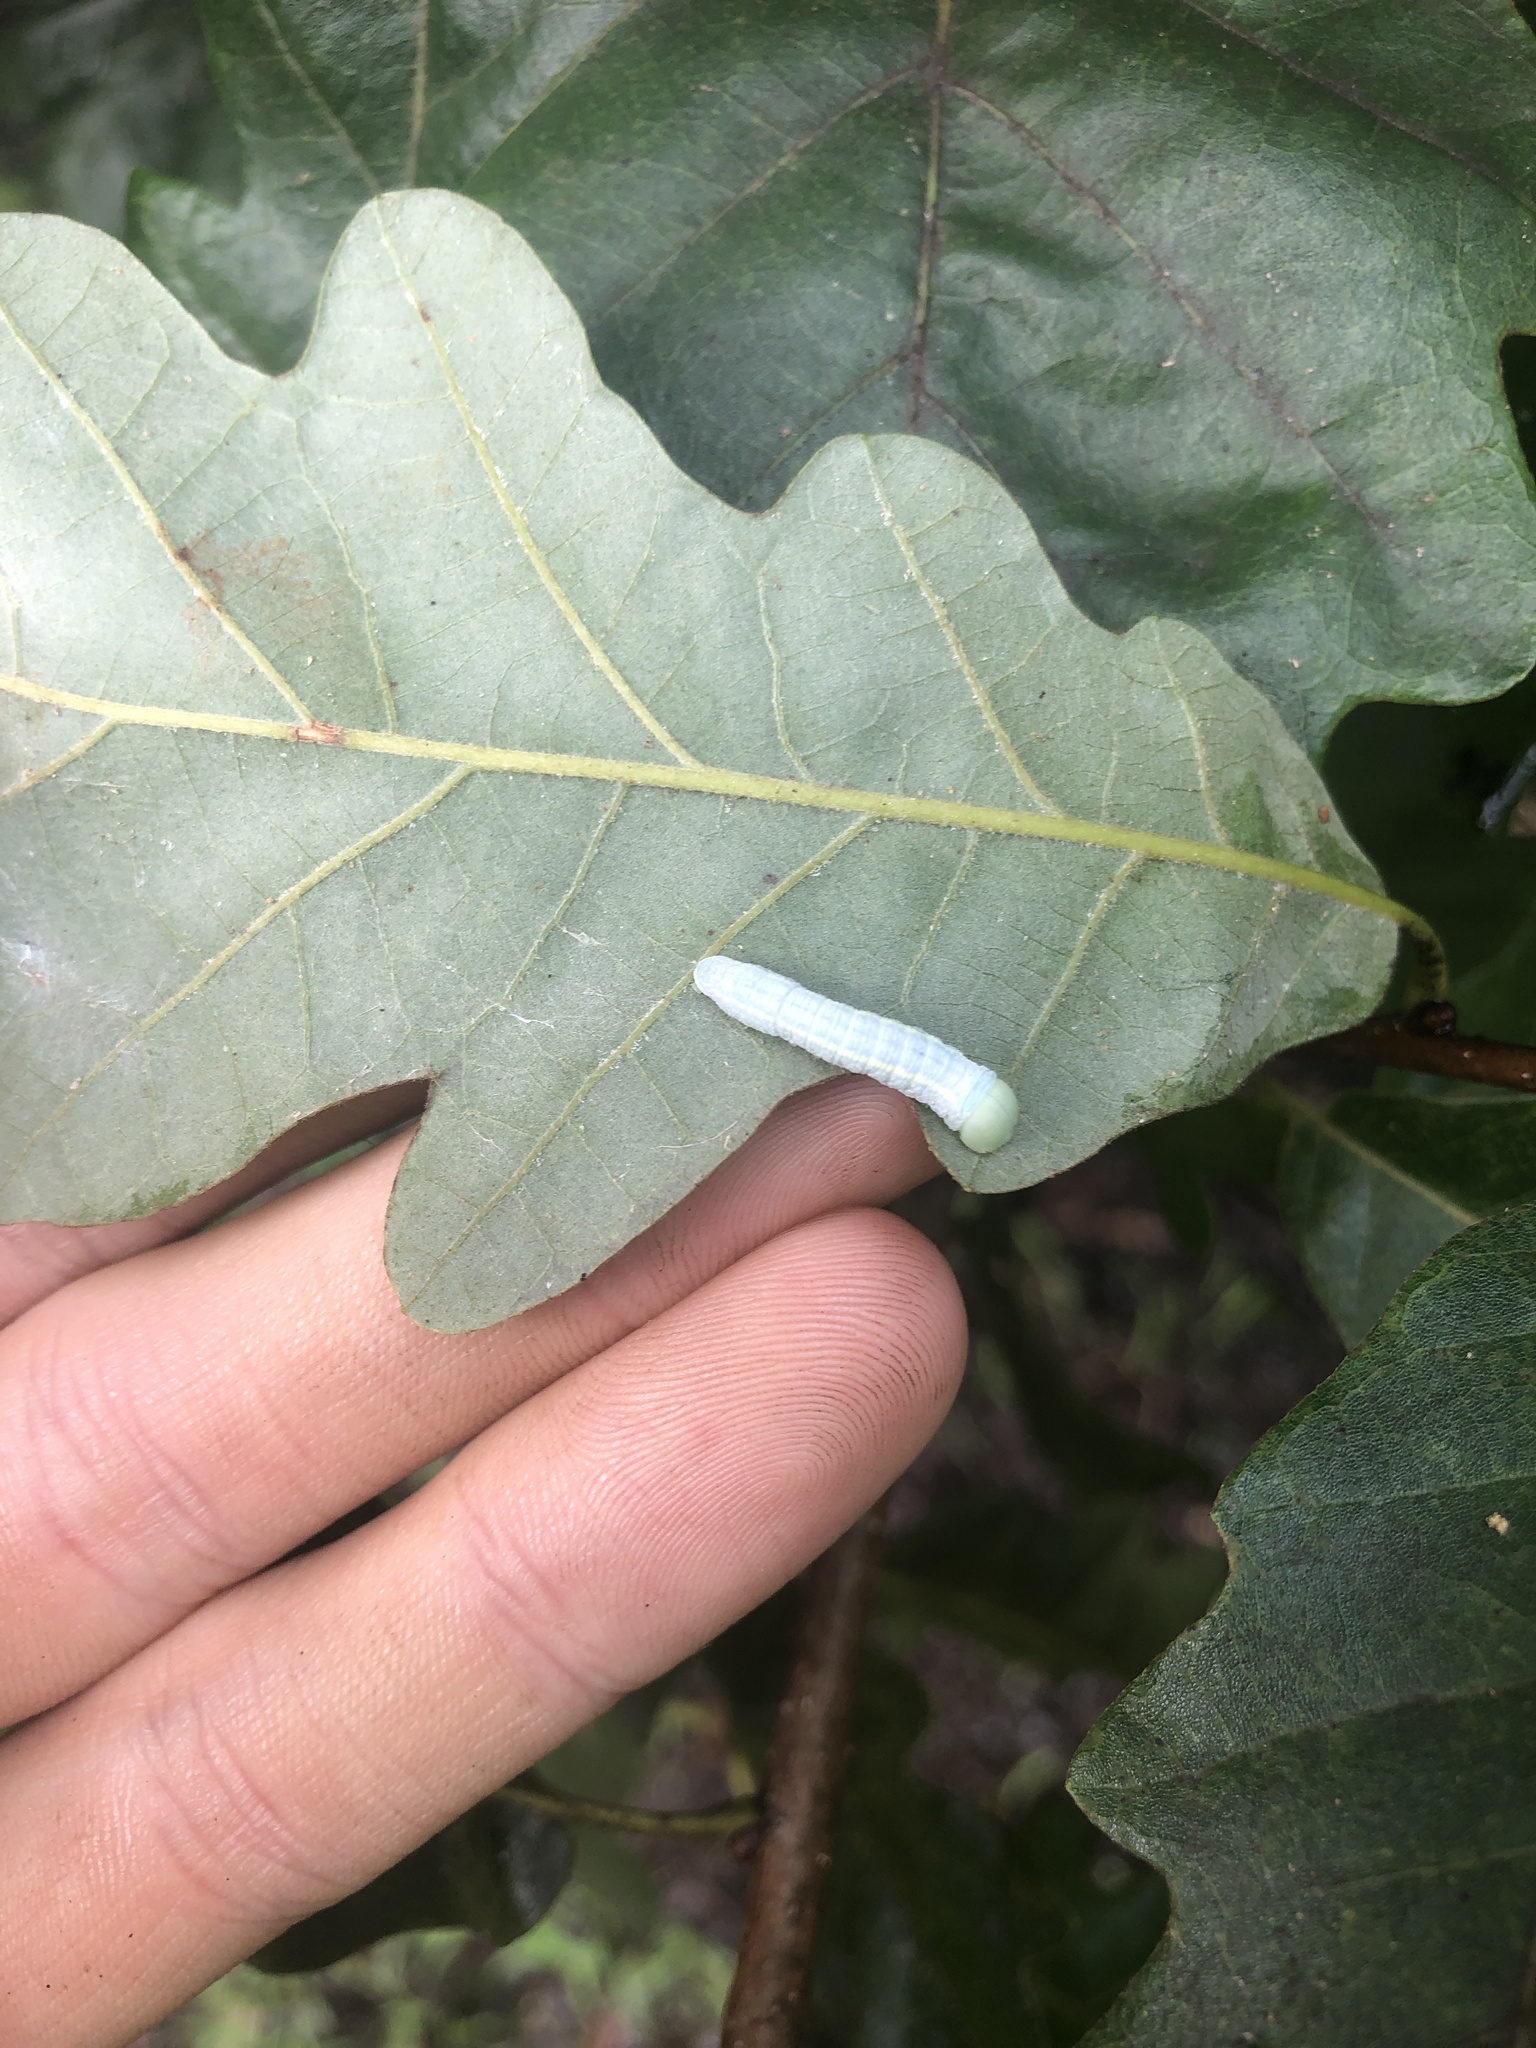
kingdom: Animalia
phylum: Arthropoda
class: Insecta
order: Lepidoptera
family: Notodontidae
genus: Nadata
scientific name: Nadata gibbosa
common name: White-dotted prominent
